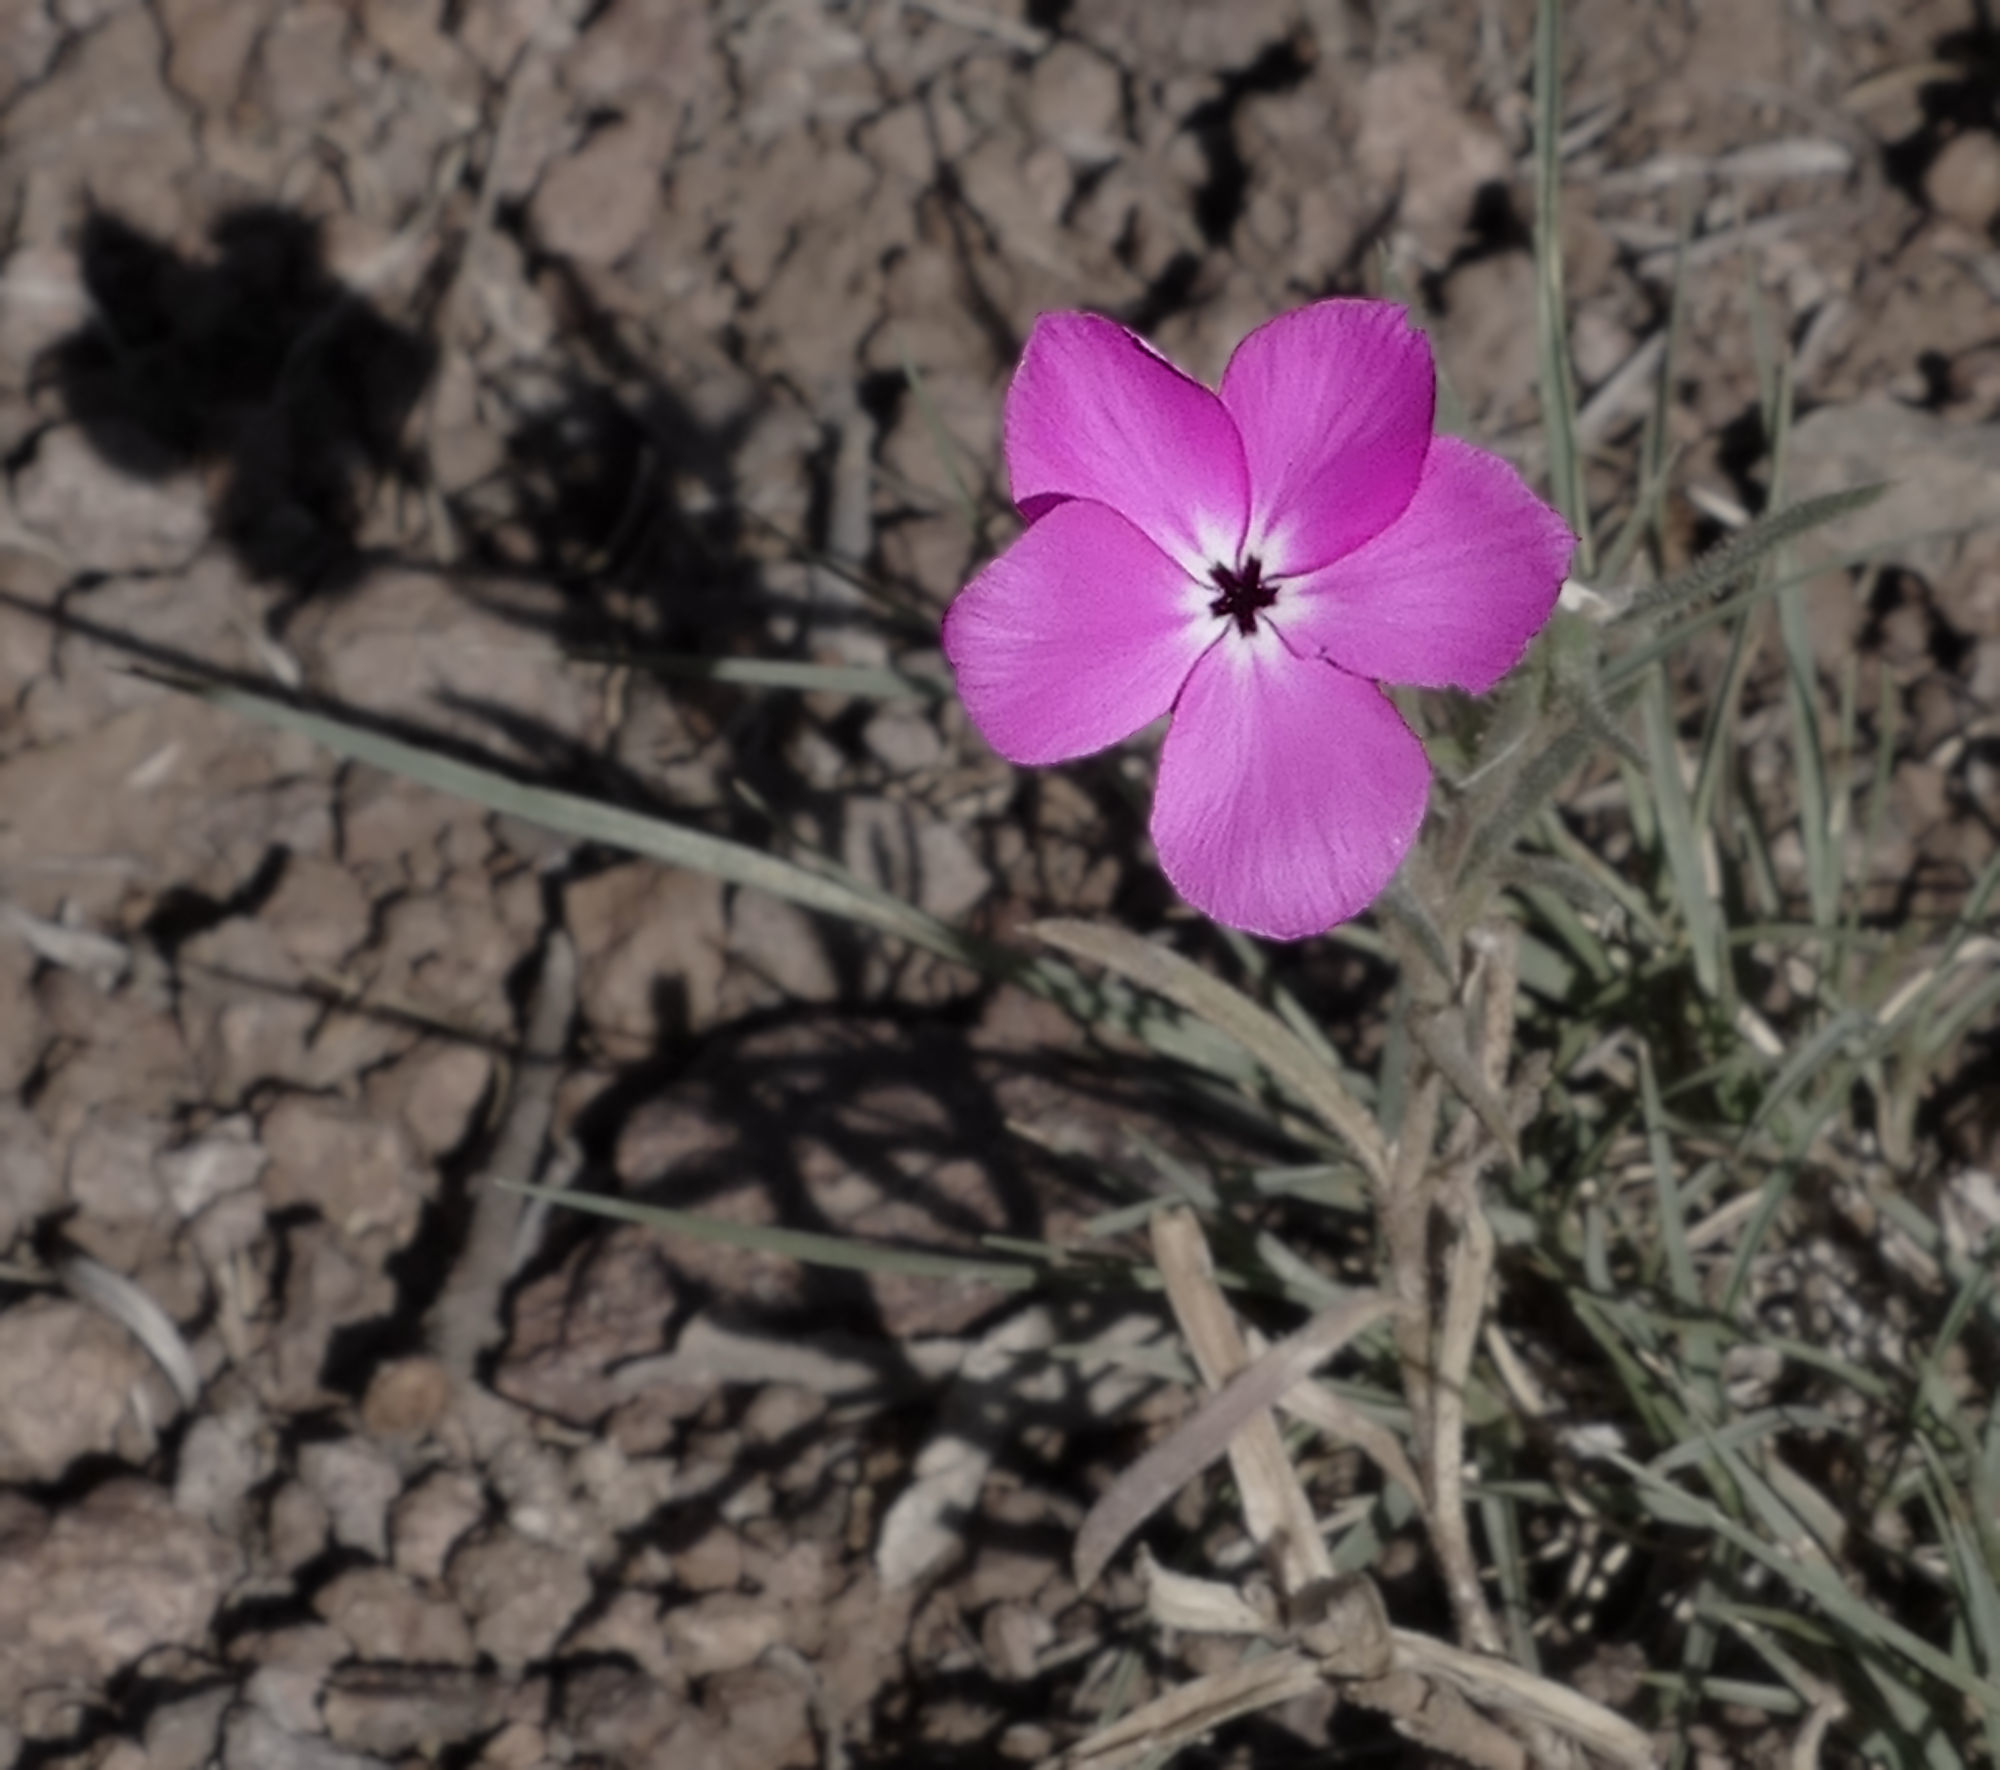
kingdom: Plantae
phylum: Tracheophyta
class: Magnoliopsida
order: Ericales
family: Polemoniaceae
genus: Phlox
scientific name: Phlox nana
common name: Santa fe phlox
